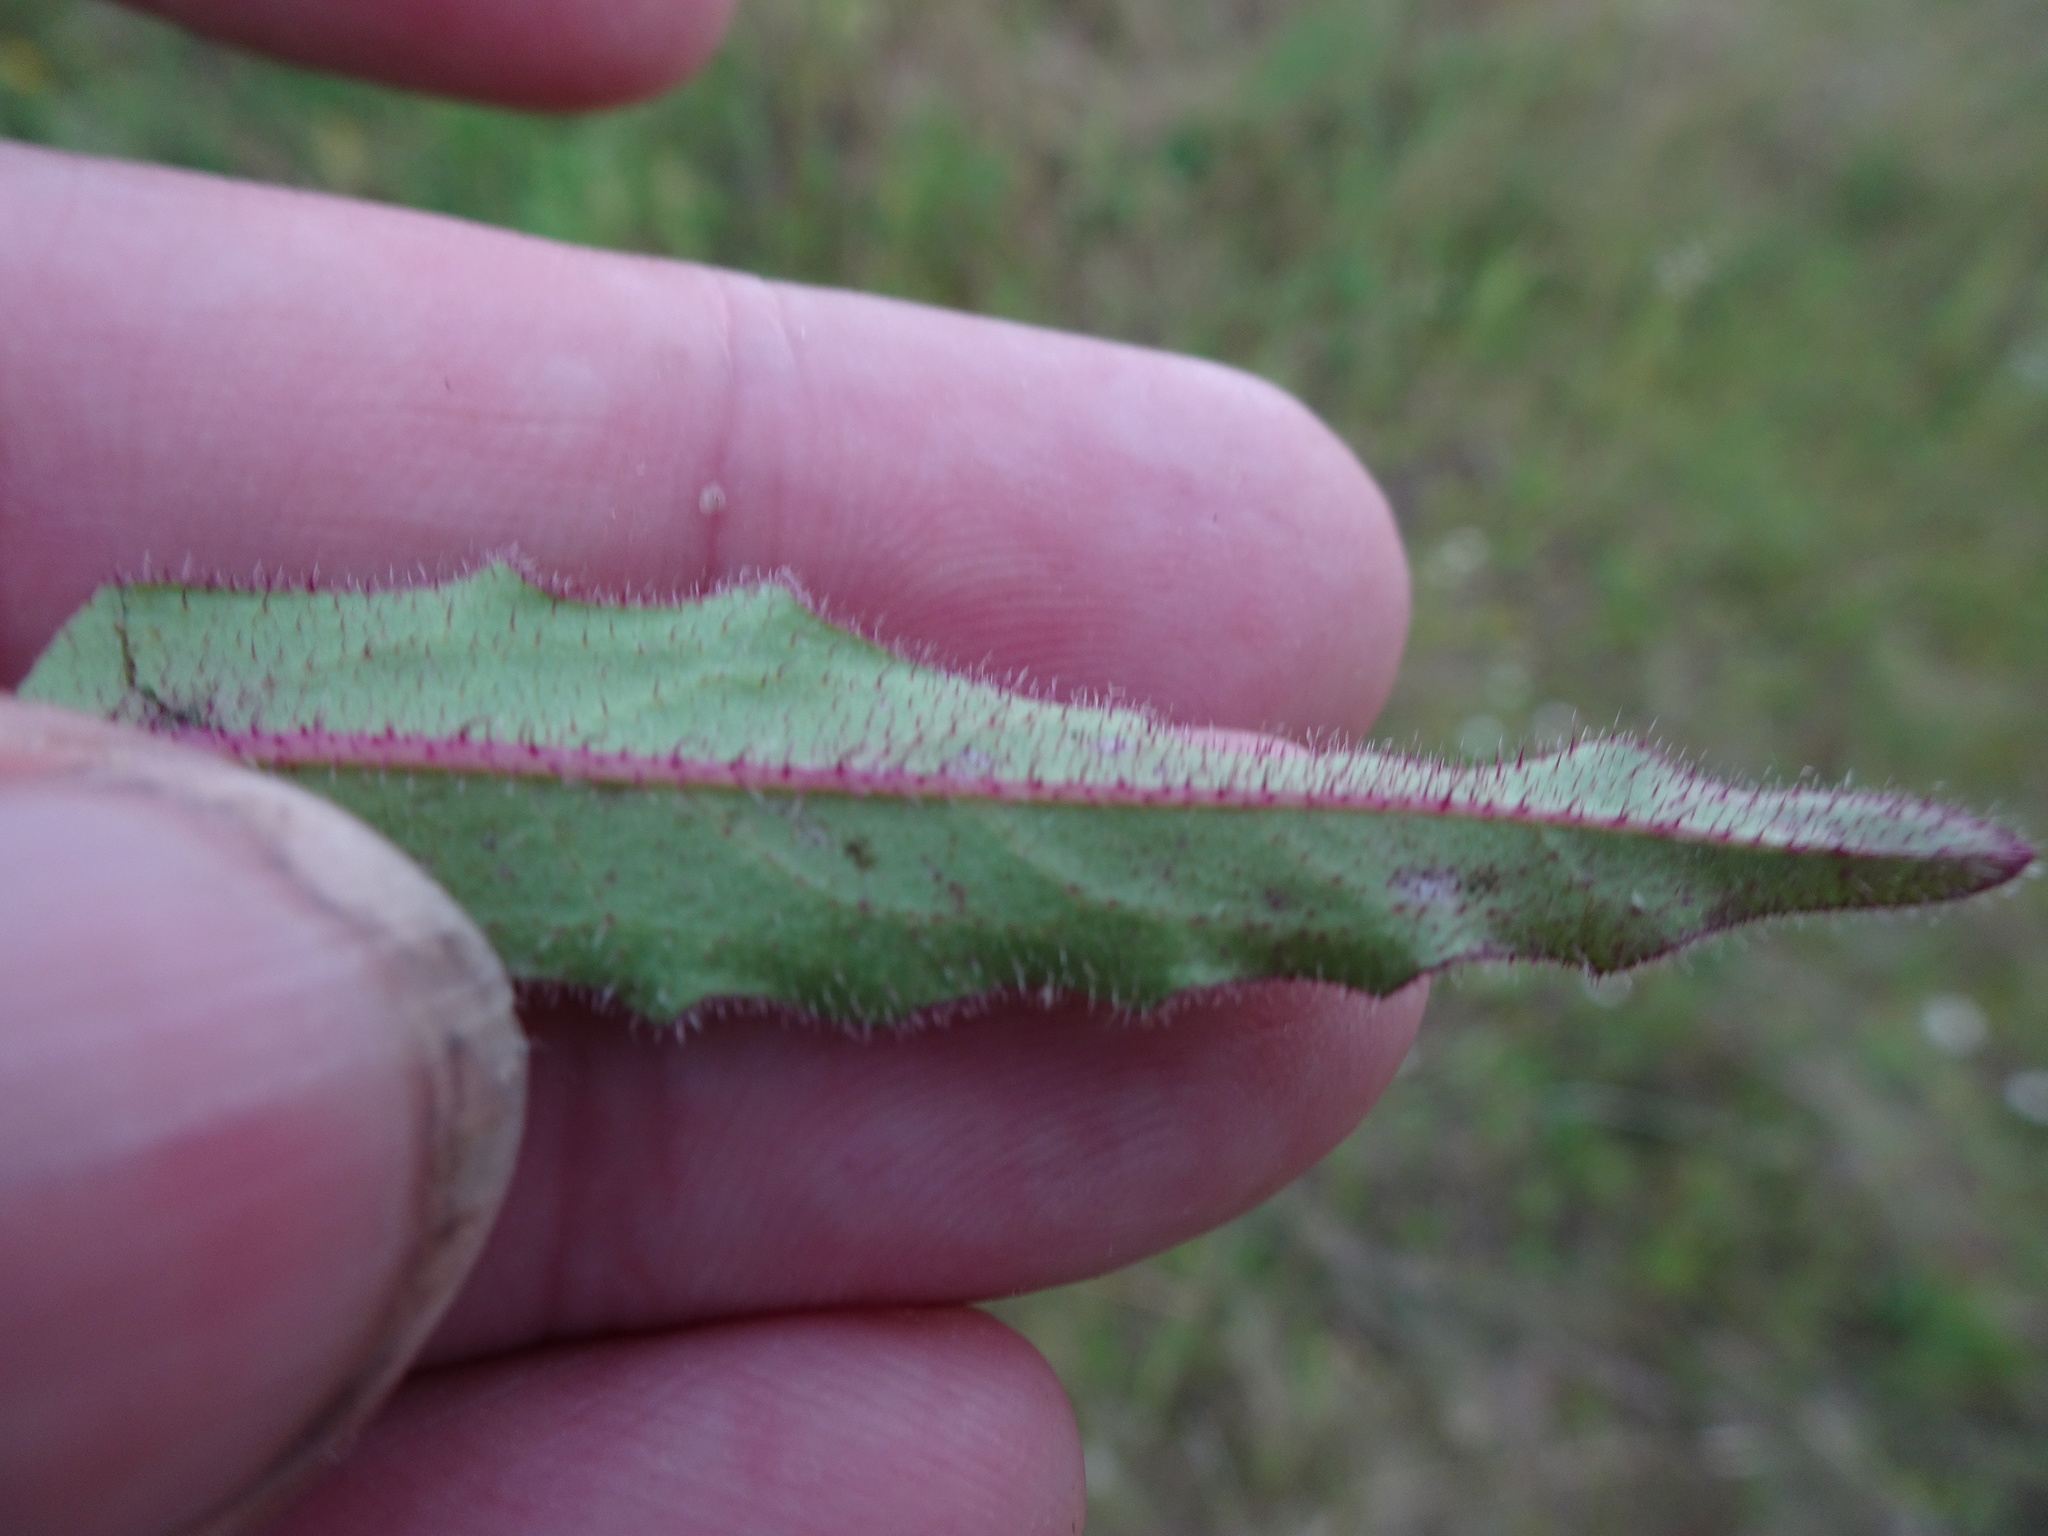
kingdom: Plantae
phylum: Tracheophyta
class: Magnoliopsida
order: Asterales
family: Asteraceae
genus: Picris
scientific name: Picris hieracioides
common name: Hawkweed oxtongue
